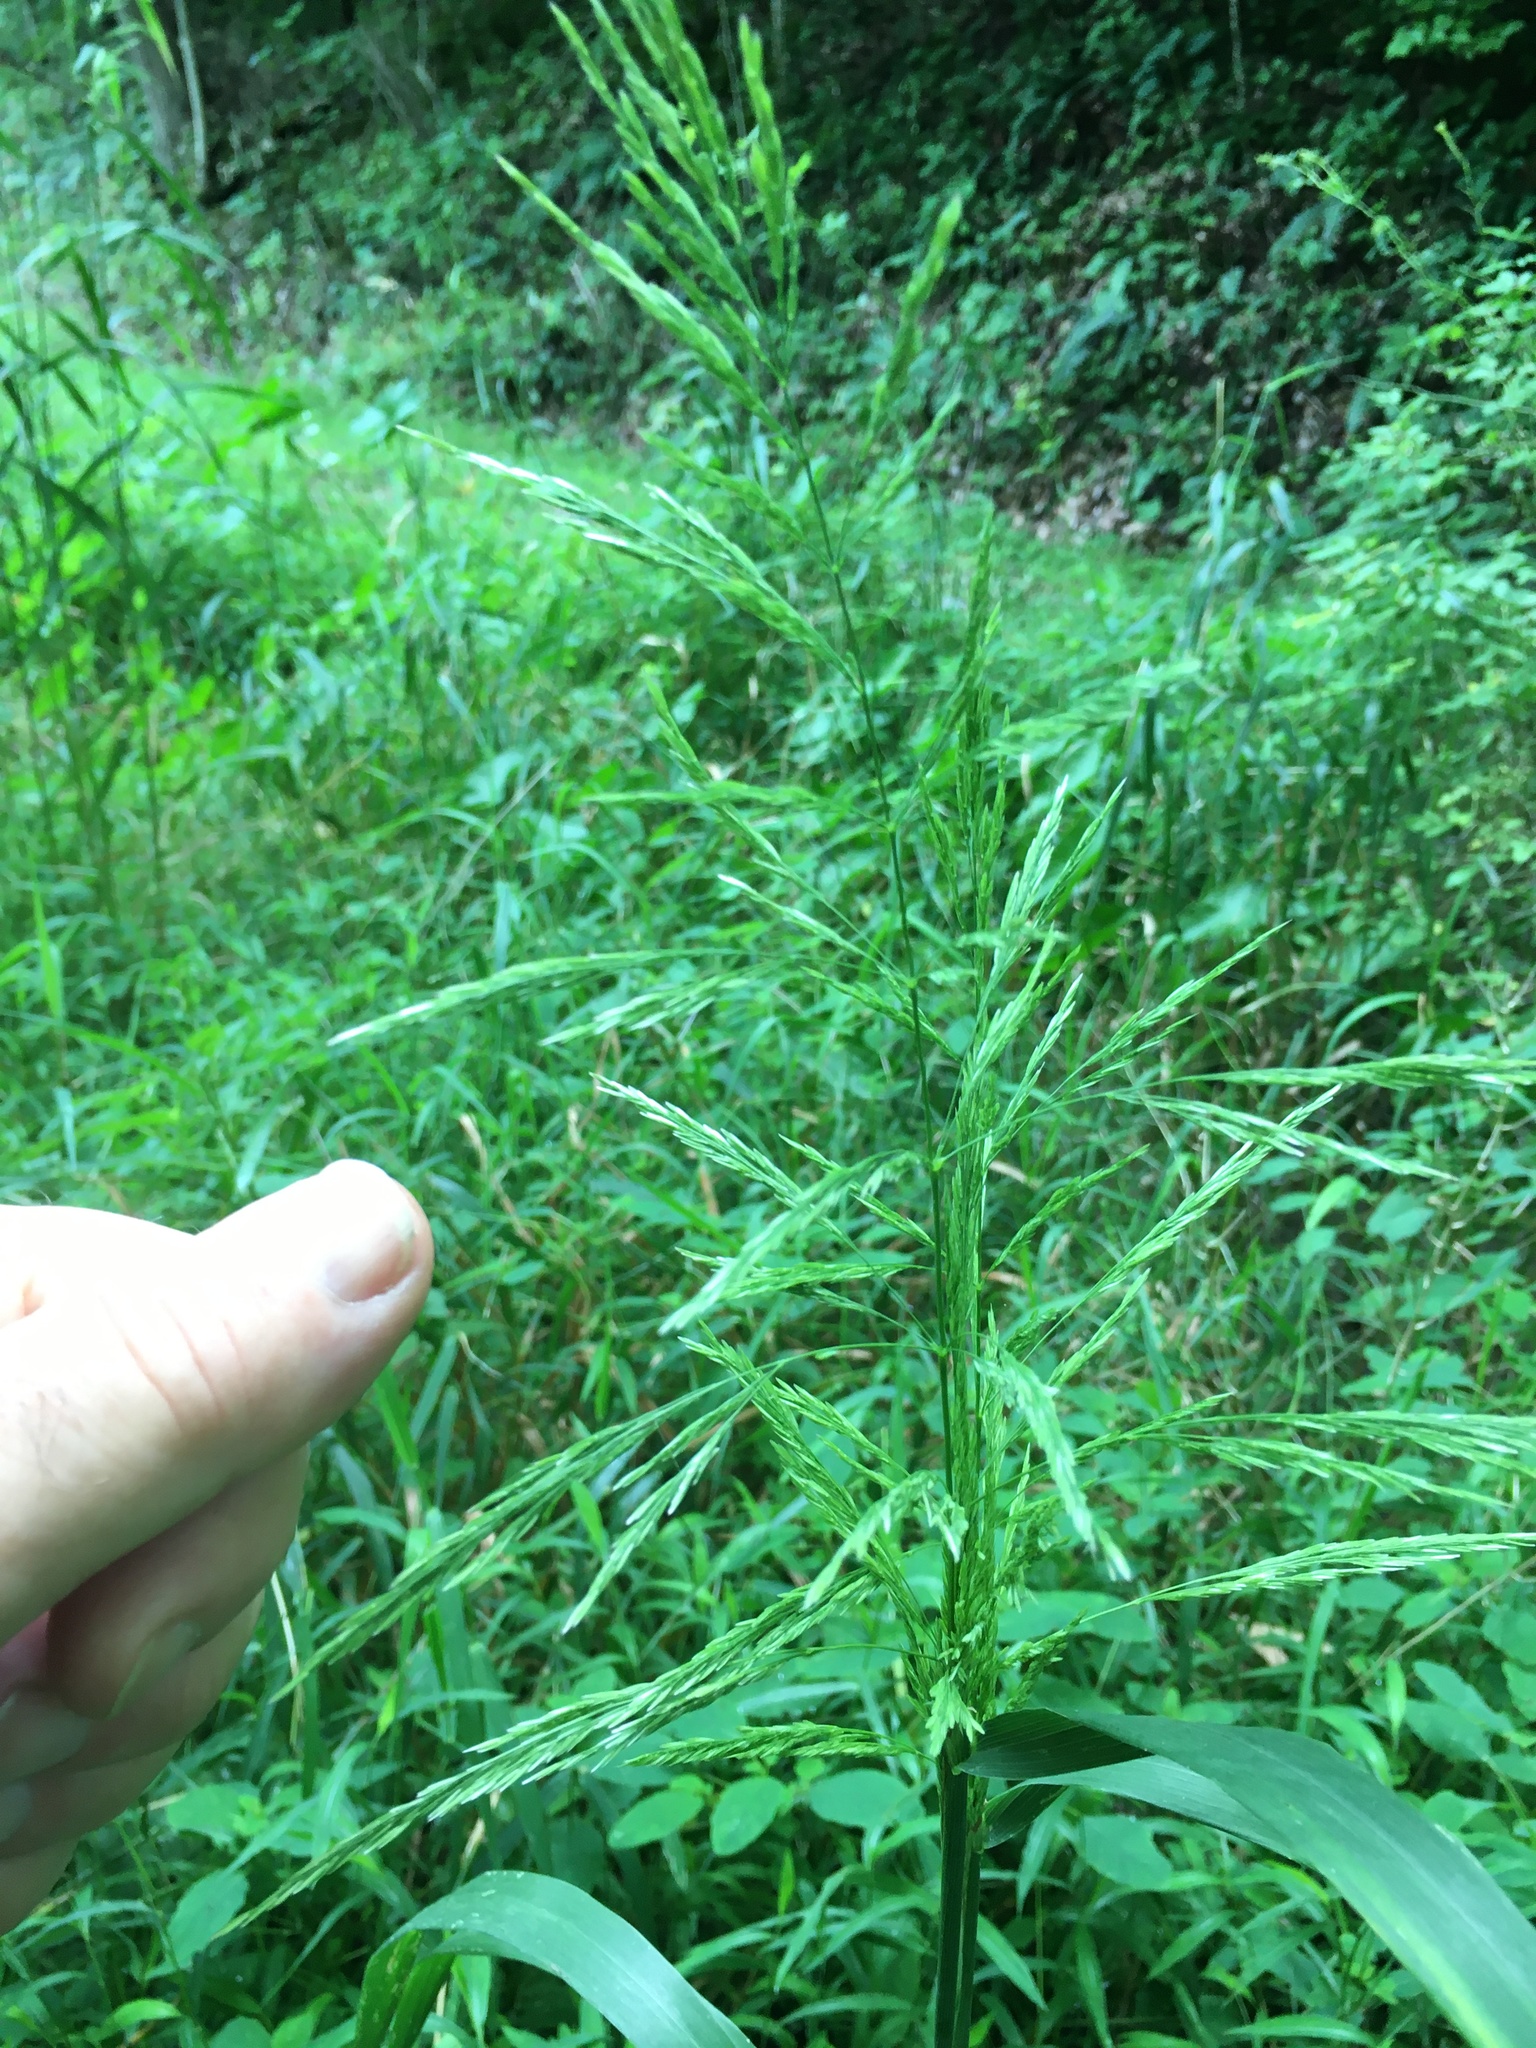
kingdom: Plantae
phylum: Tracheophyta
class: Liliopsida
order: Poales
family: Poaceae
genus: Cinna
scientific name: Cinna arundinacea
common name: Stout woodreed
